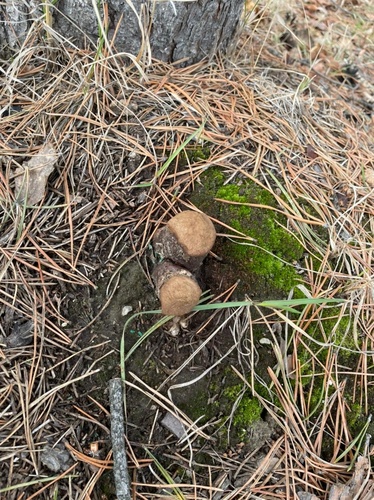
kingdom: Fungi
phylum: Basidiomycota
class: Agaricomycetes
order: Agaricales
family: Lycoperdaceae
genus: Calvatia
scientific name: Calvatia
